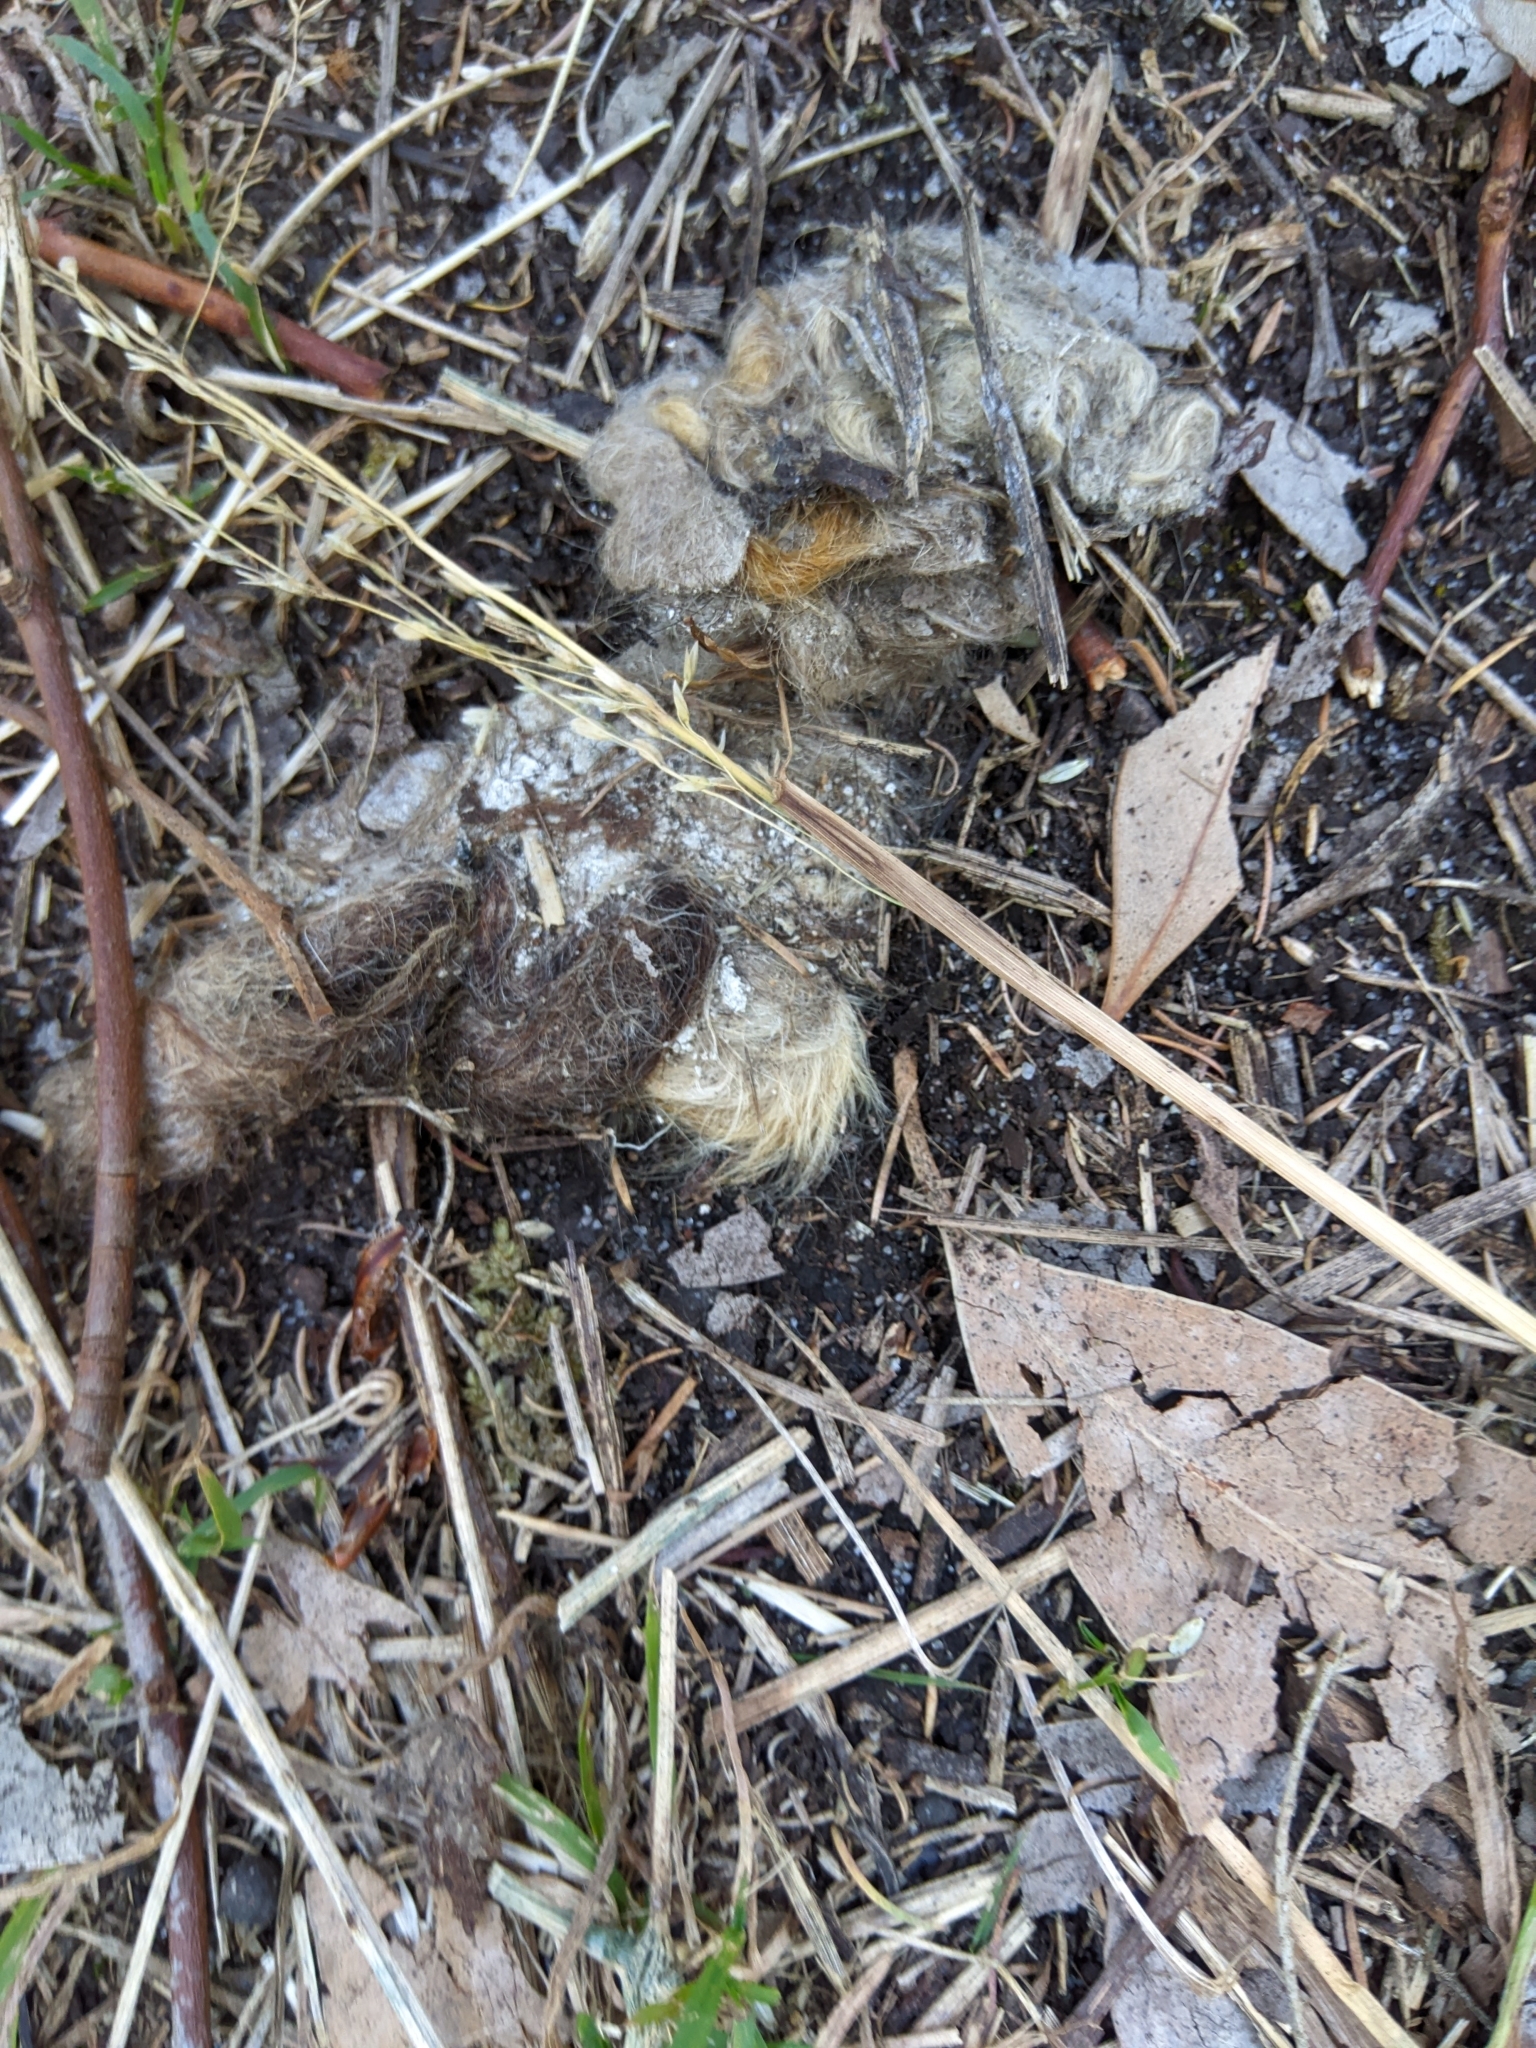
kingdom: Animalia
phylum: Chordata
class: Aves
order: Strigiformes
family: Tytonidae
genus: Tyto
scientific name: Tyto alba
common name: Barn owl
